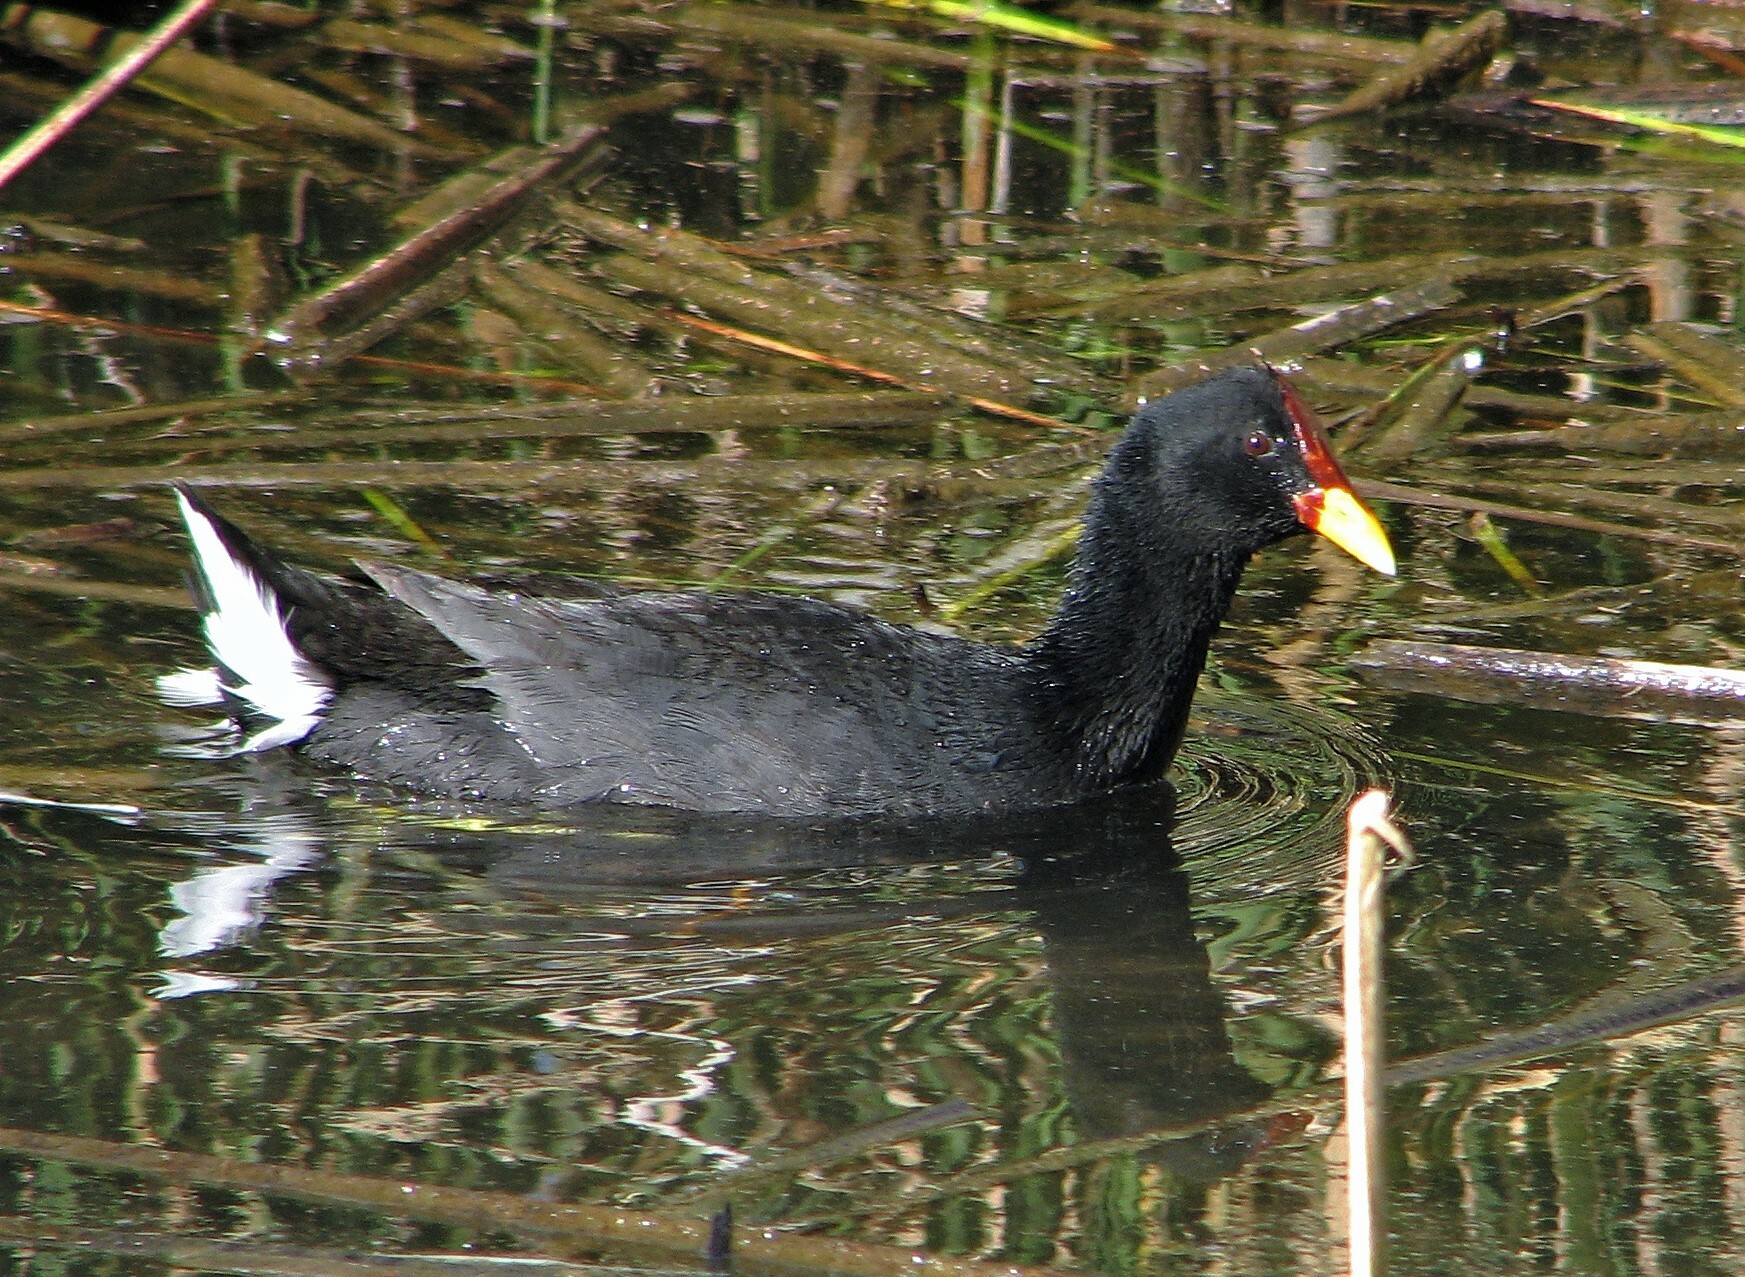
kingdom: Animalia
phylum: Chordata
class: Aves
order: Gruiformes
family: Rallidae
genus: Fulica
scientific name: Fulica rufifrons
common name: Red-fronted coot
